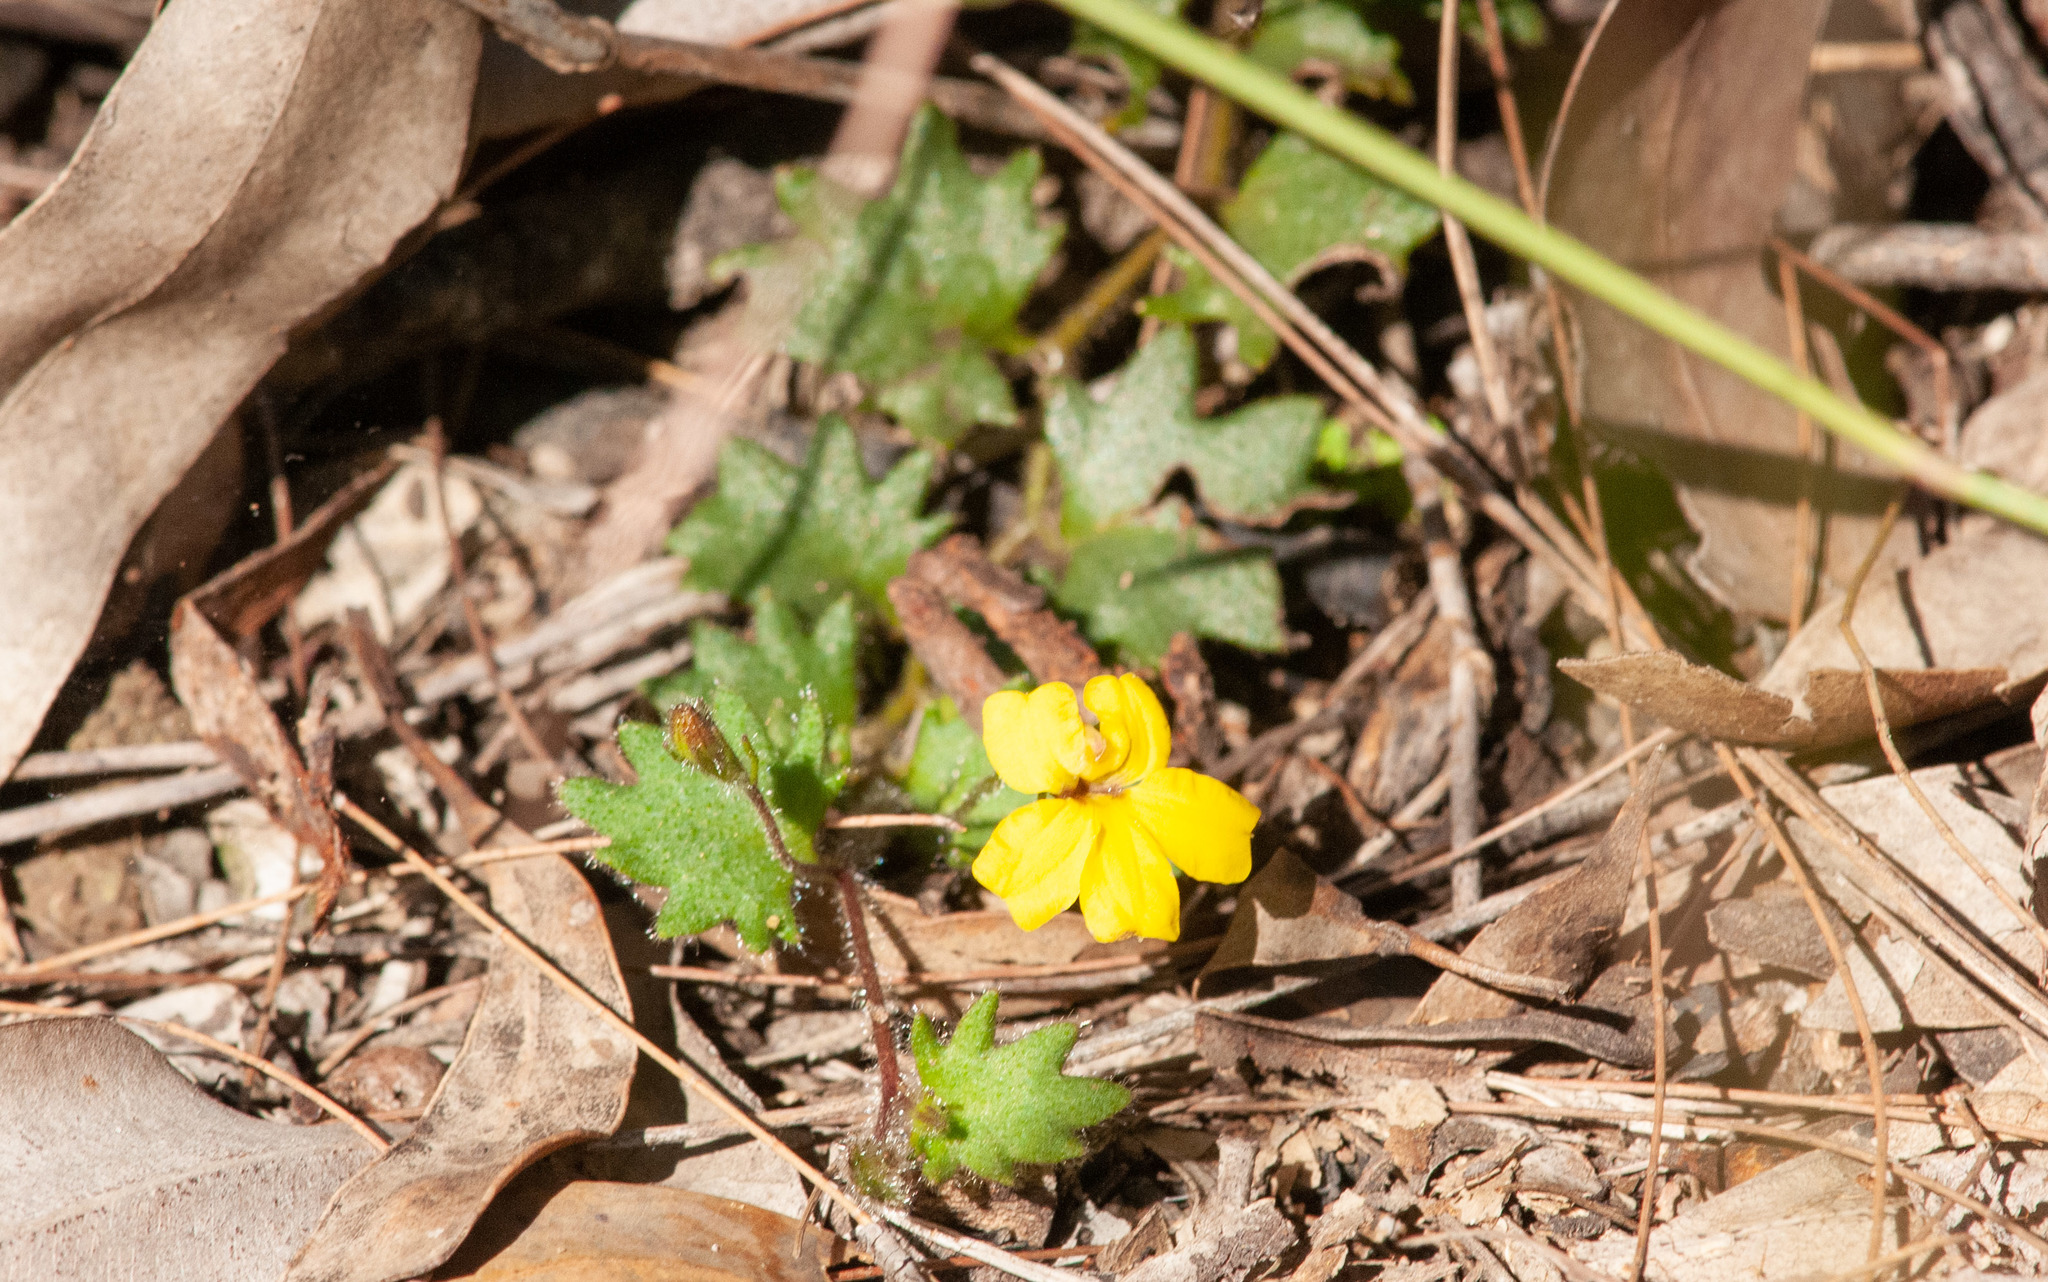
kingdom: Plantae
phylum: Tracheophyta
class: Magnoliopsida
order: Asterales
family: Goodeniaceae
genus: Goodenia
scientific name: Goodenia rotundifolia
